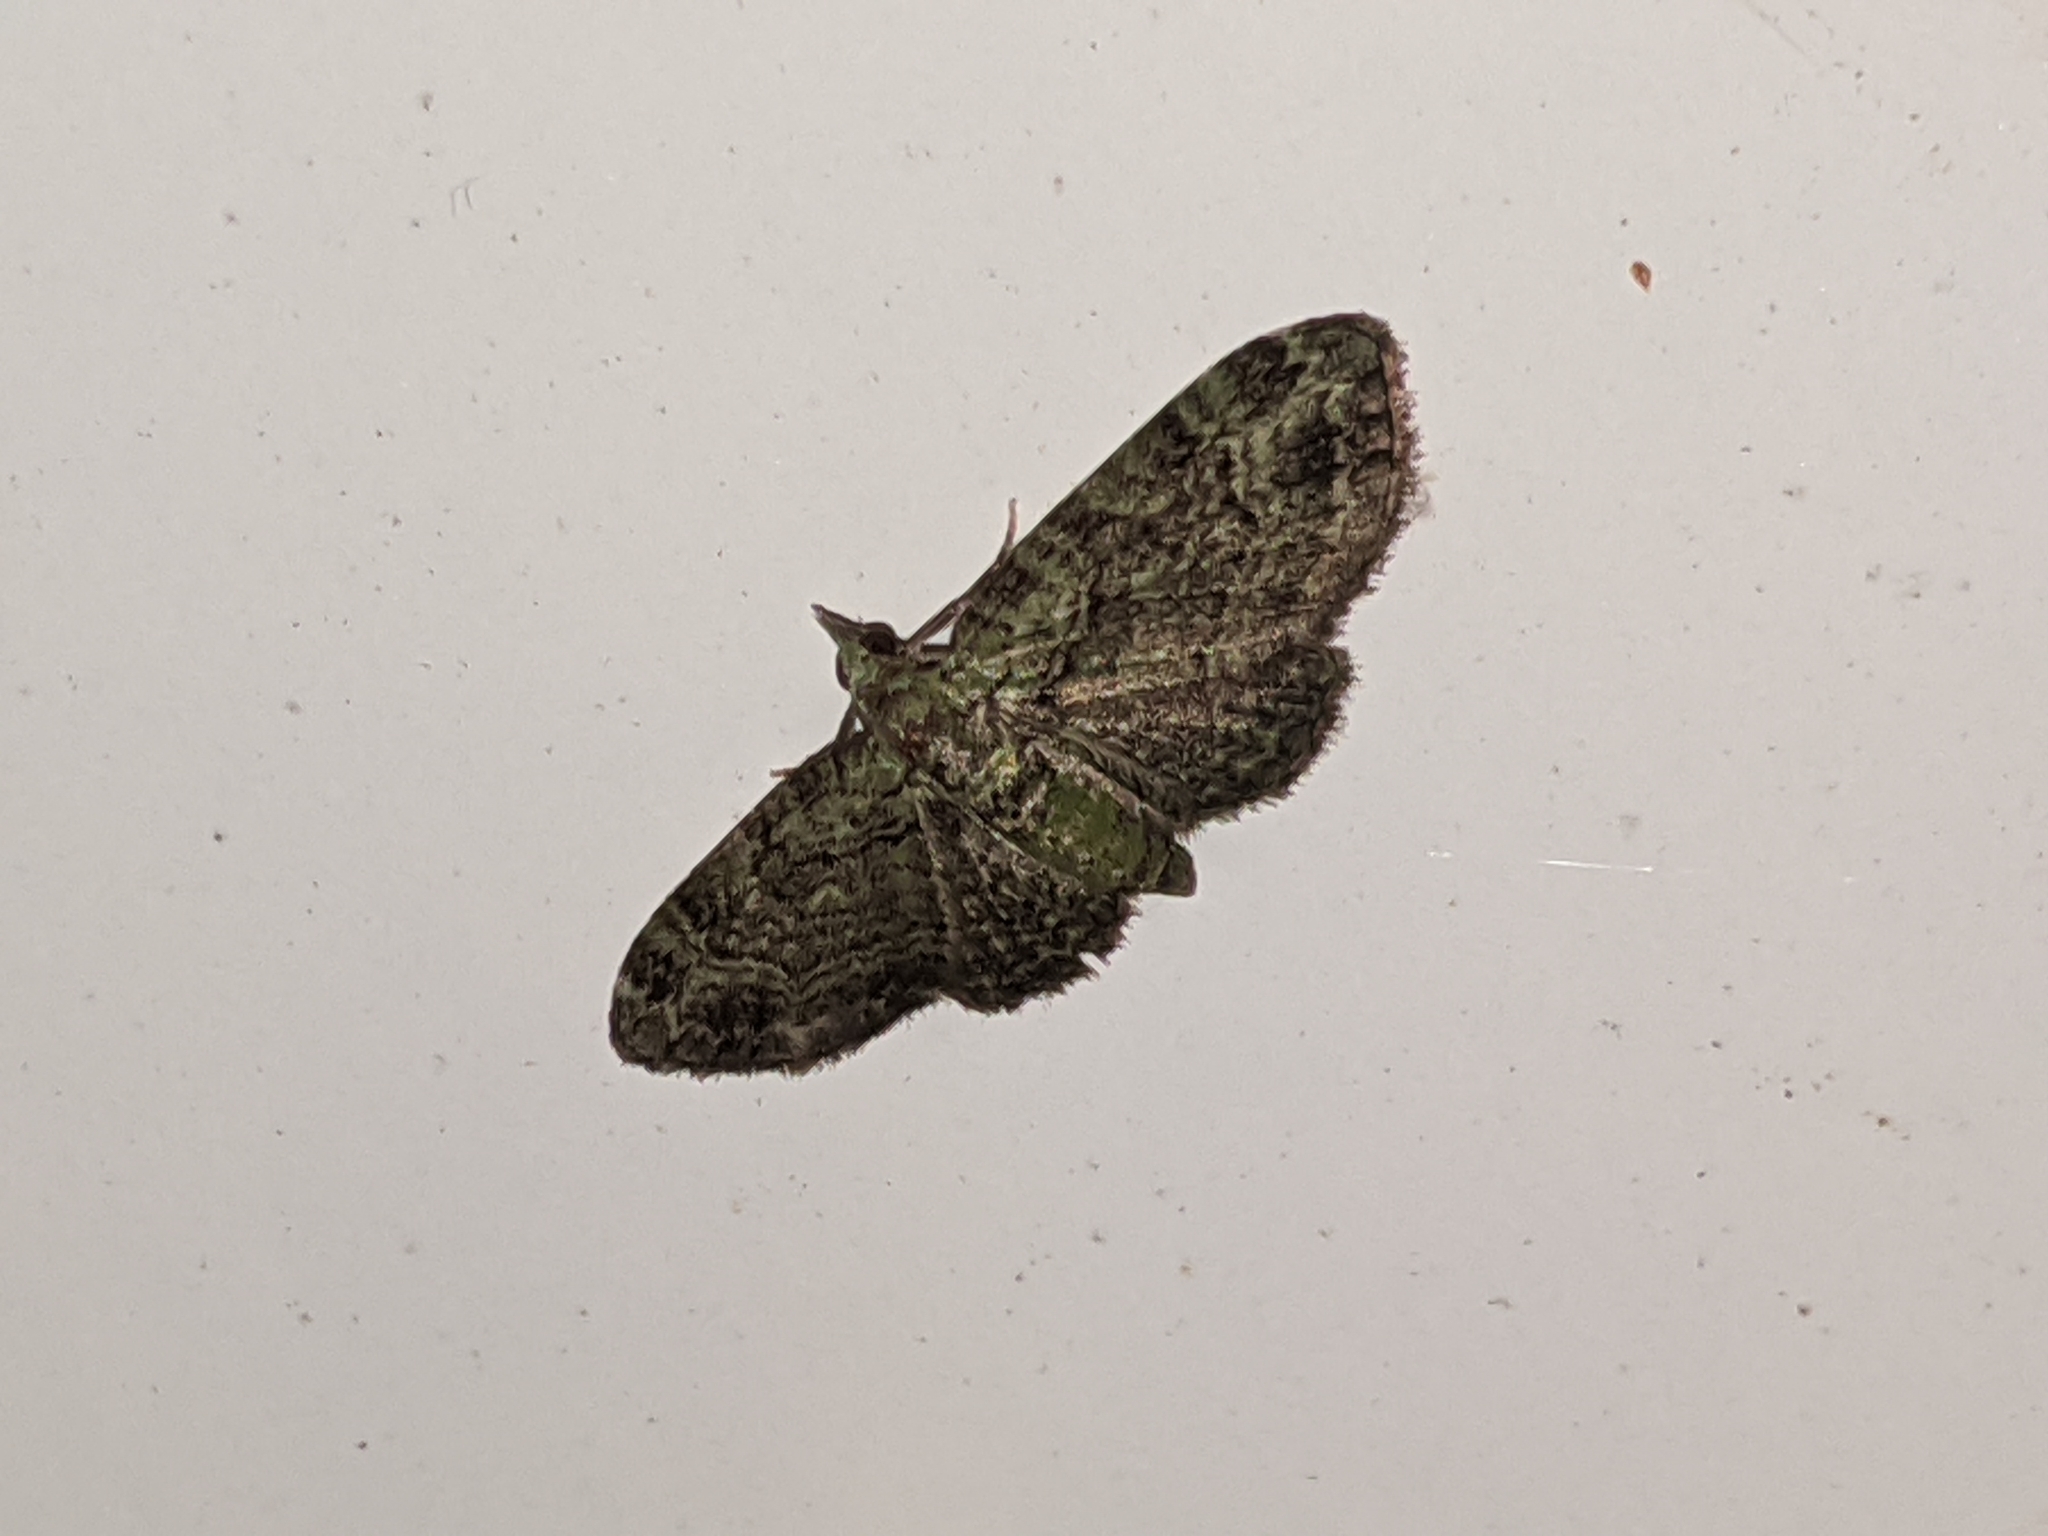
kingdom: Animalia
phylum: Arthropoda
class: Insecta
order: Lepidoptera
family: Geometridae
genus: Pasiphila
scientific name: Pasiphila rectangulata
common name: Green pug
